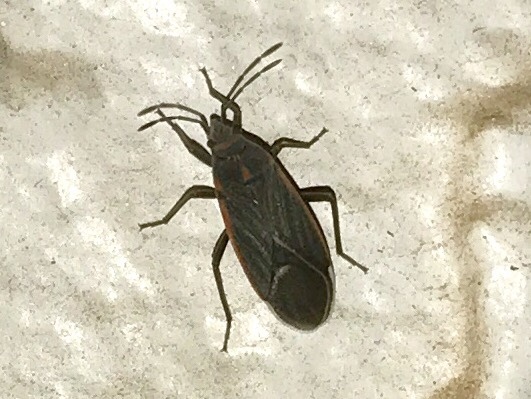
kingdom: Animalia
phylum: Arthropoda
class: Insecta
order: Hemiptera
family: Lygaeidae
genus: Melacoryphus
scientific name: Melacoryphus lateralis
